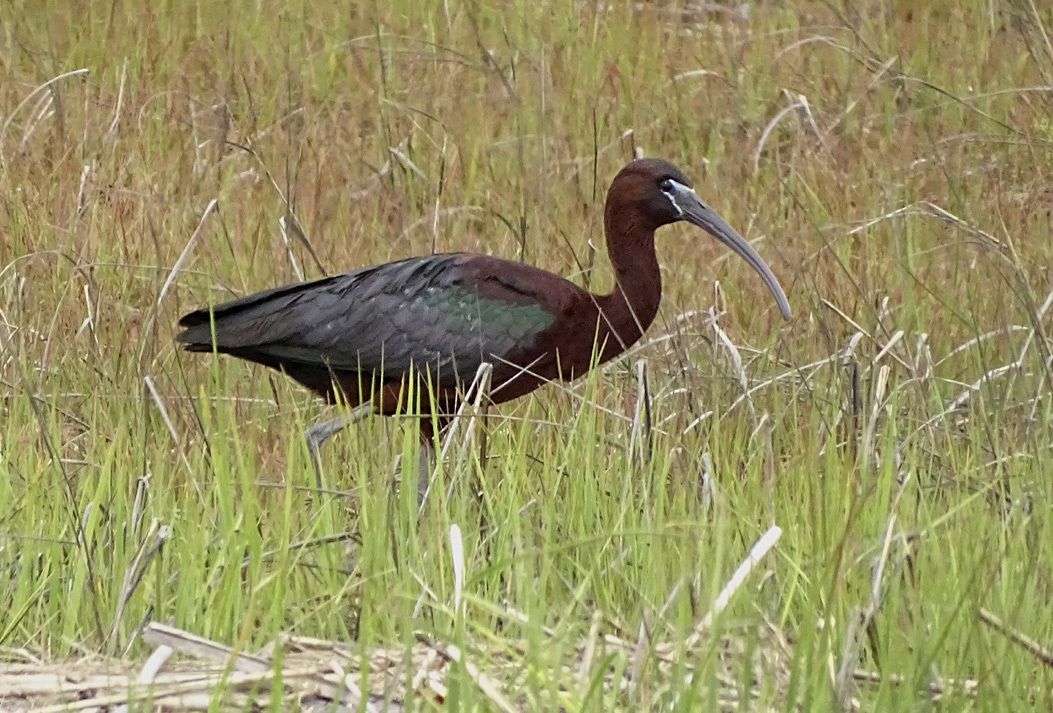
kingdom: Animalia
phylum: Chordata
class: Aves
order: Pelecaniformes
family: Threskiornithidae
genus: Plegadis
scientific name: Plegadis falcinellus
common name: Glossy ibis
